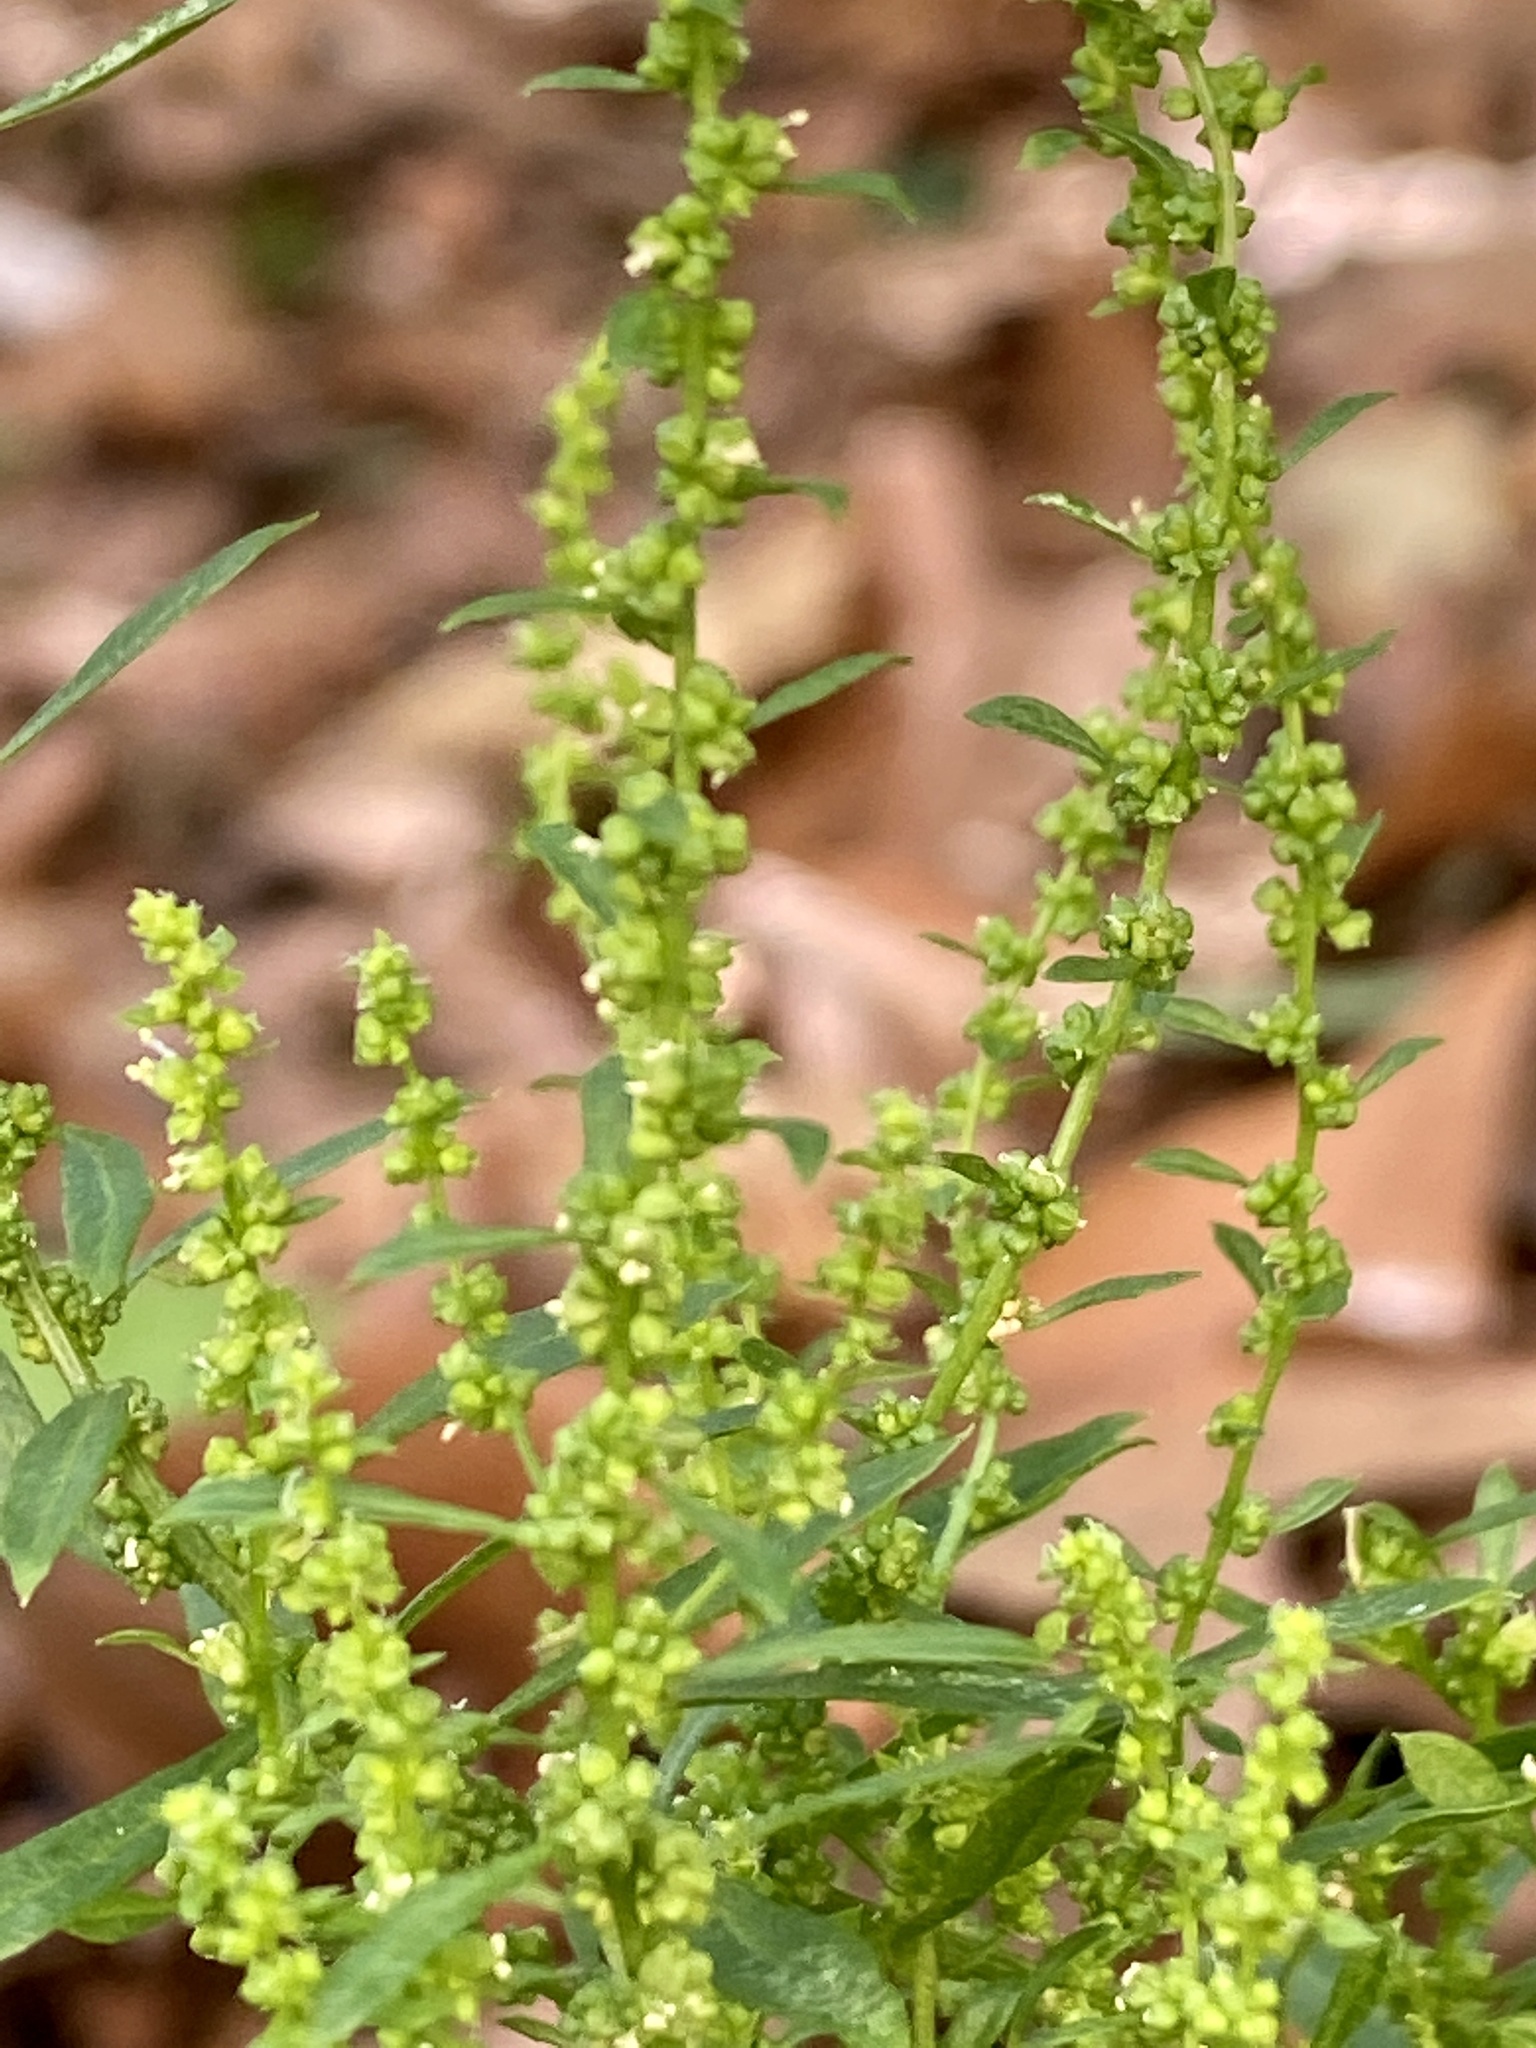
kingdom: Plantae
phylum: Tracheophyta
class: Magnoliopsida
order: Caryophyllales
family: Amaranthaceae
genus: Dysphania
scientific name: Dysphania ambrosioides
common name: Wormseed
